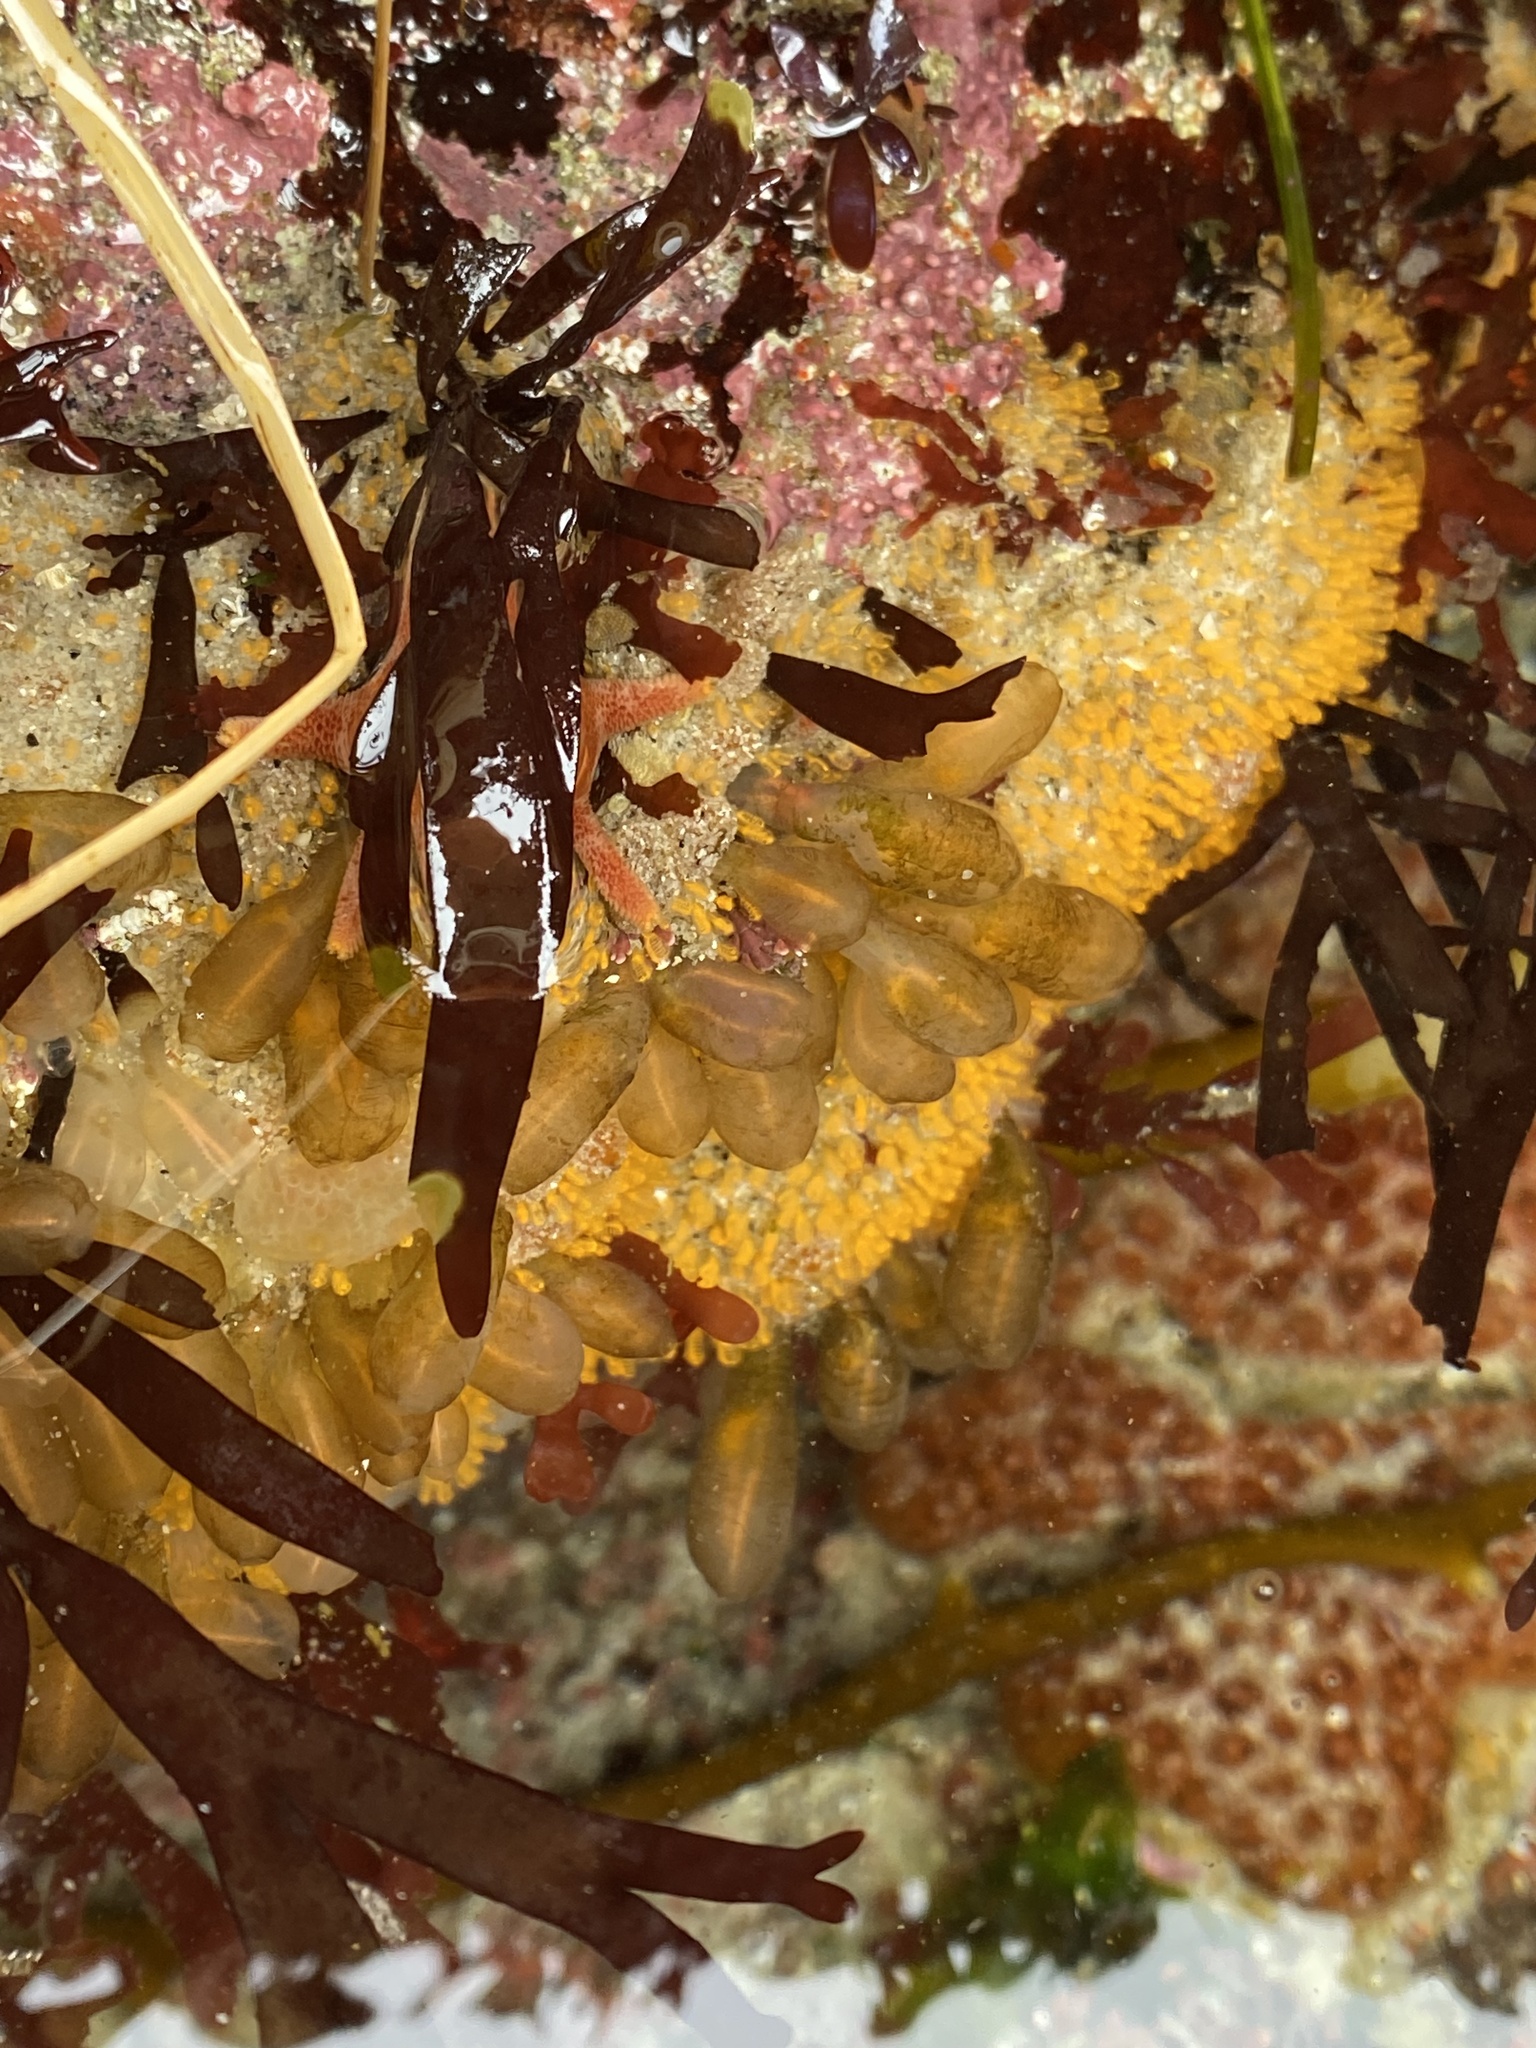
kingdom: Animalia
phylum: Chordata
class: Ascidiacea
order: Aplousobranchia
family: Clavelinidae
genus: Clavelina
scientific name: Clavelina huntsmani
